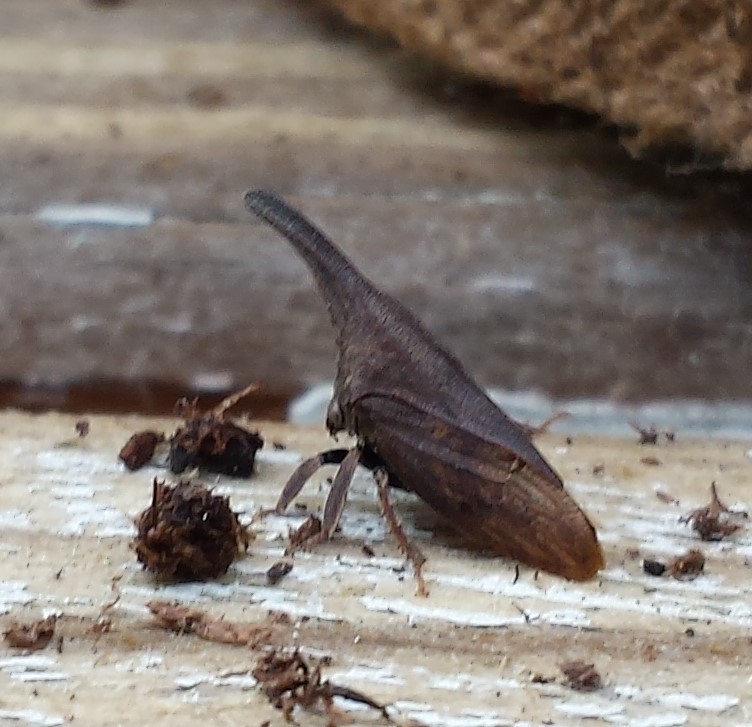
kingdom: Animalia
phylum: Arthropoda
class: Insecta
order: Hemiptera
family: Membracidae
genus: Enchenopa
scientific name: Enchenopa latipes
